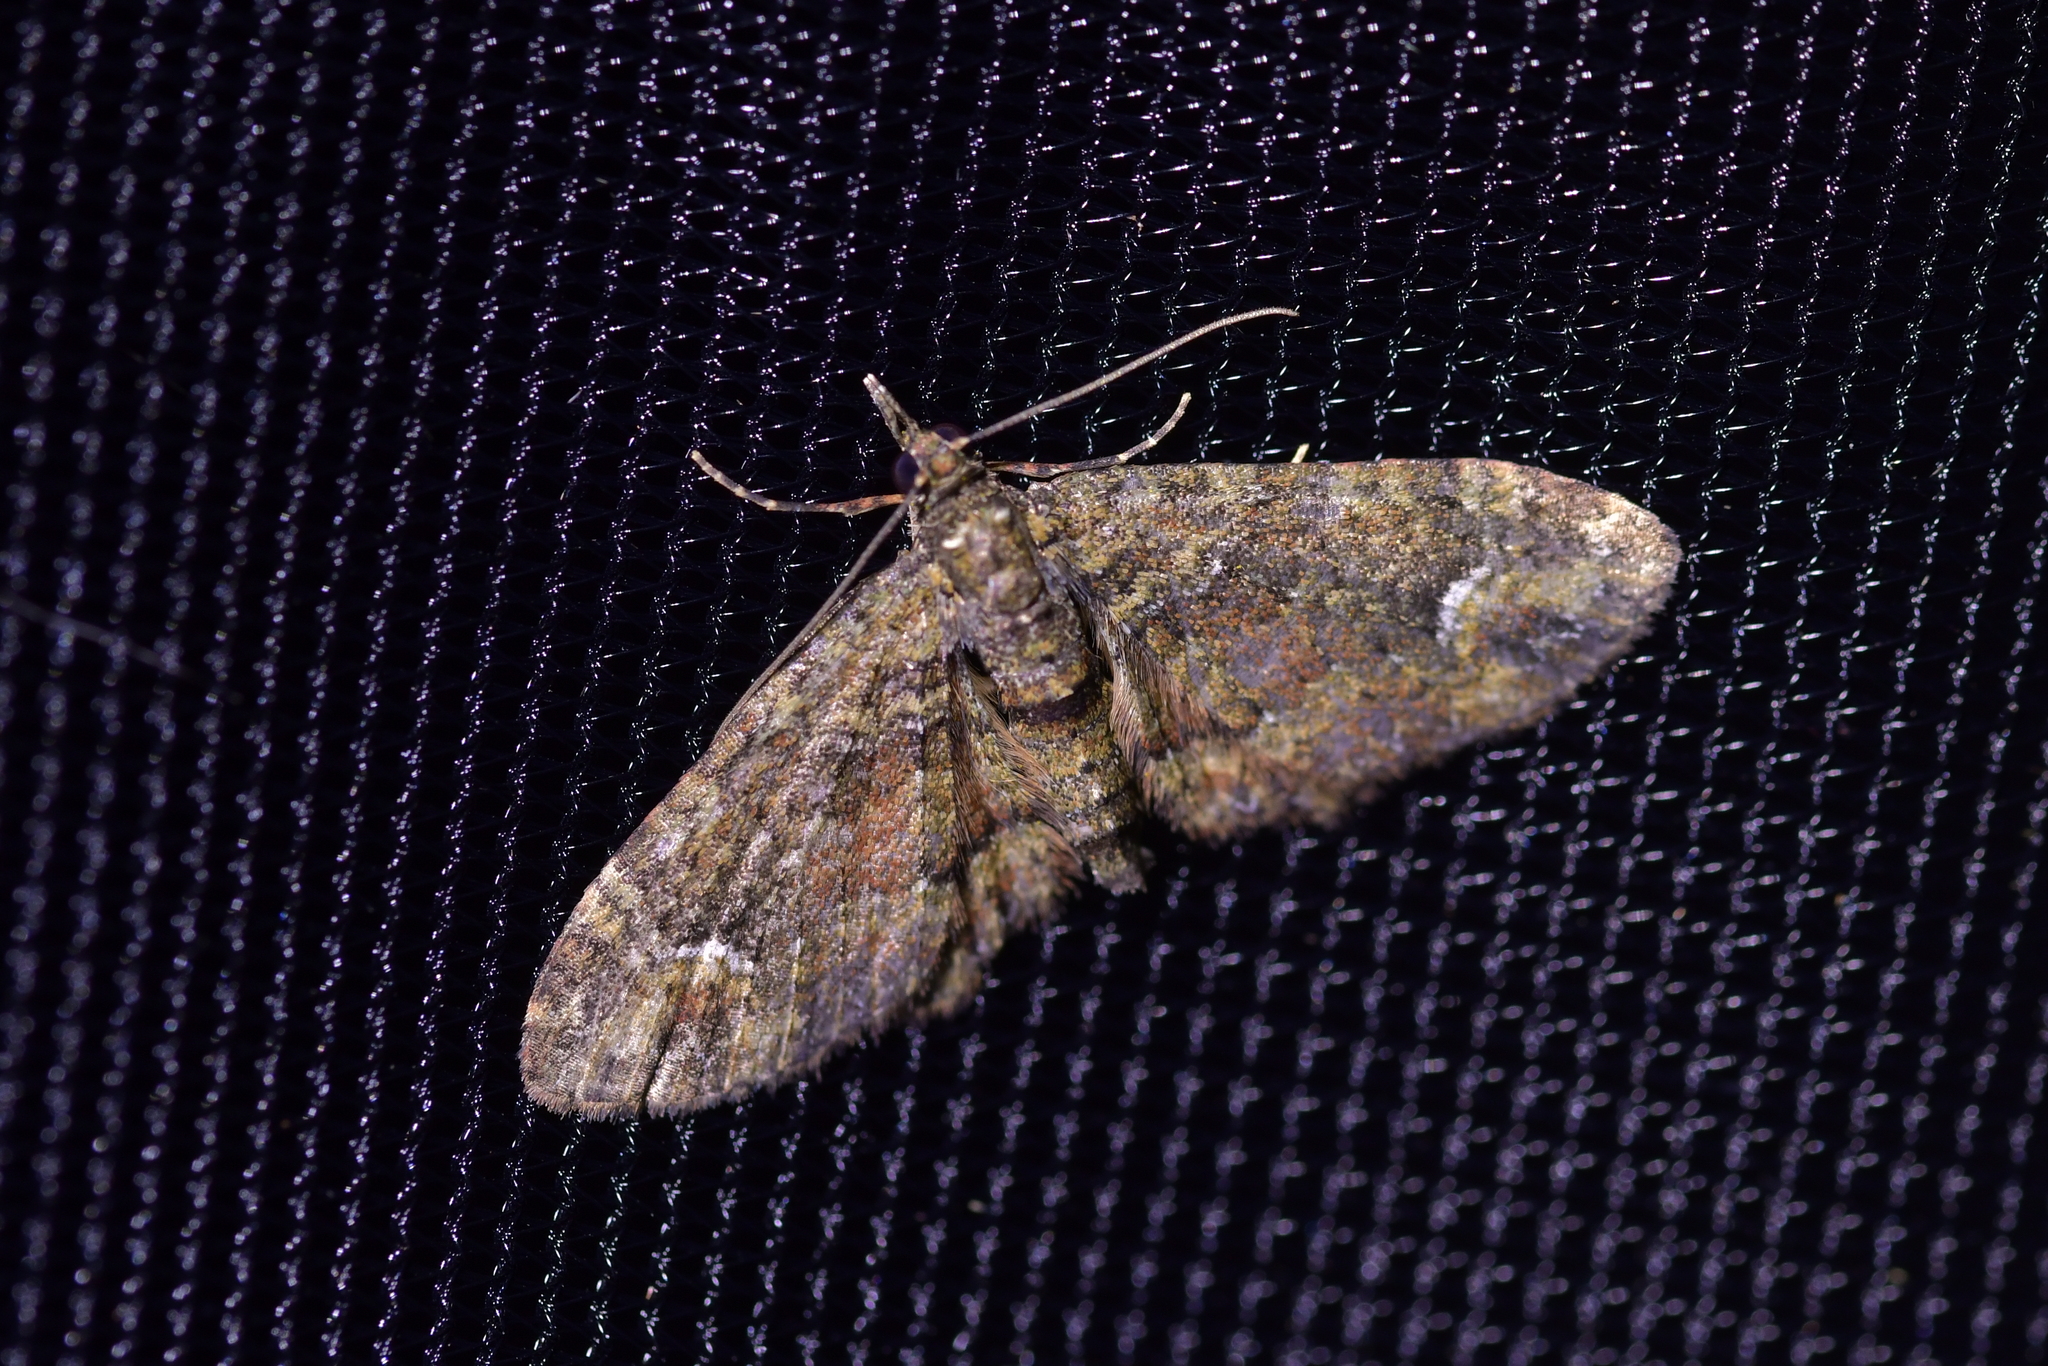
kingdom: Animalia
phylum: Arthropoda
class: Insecta
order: Lepidoptera
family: Geometridae
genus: Pasiphilodes
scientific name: Pasiphilodes testulata
